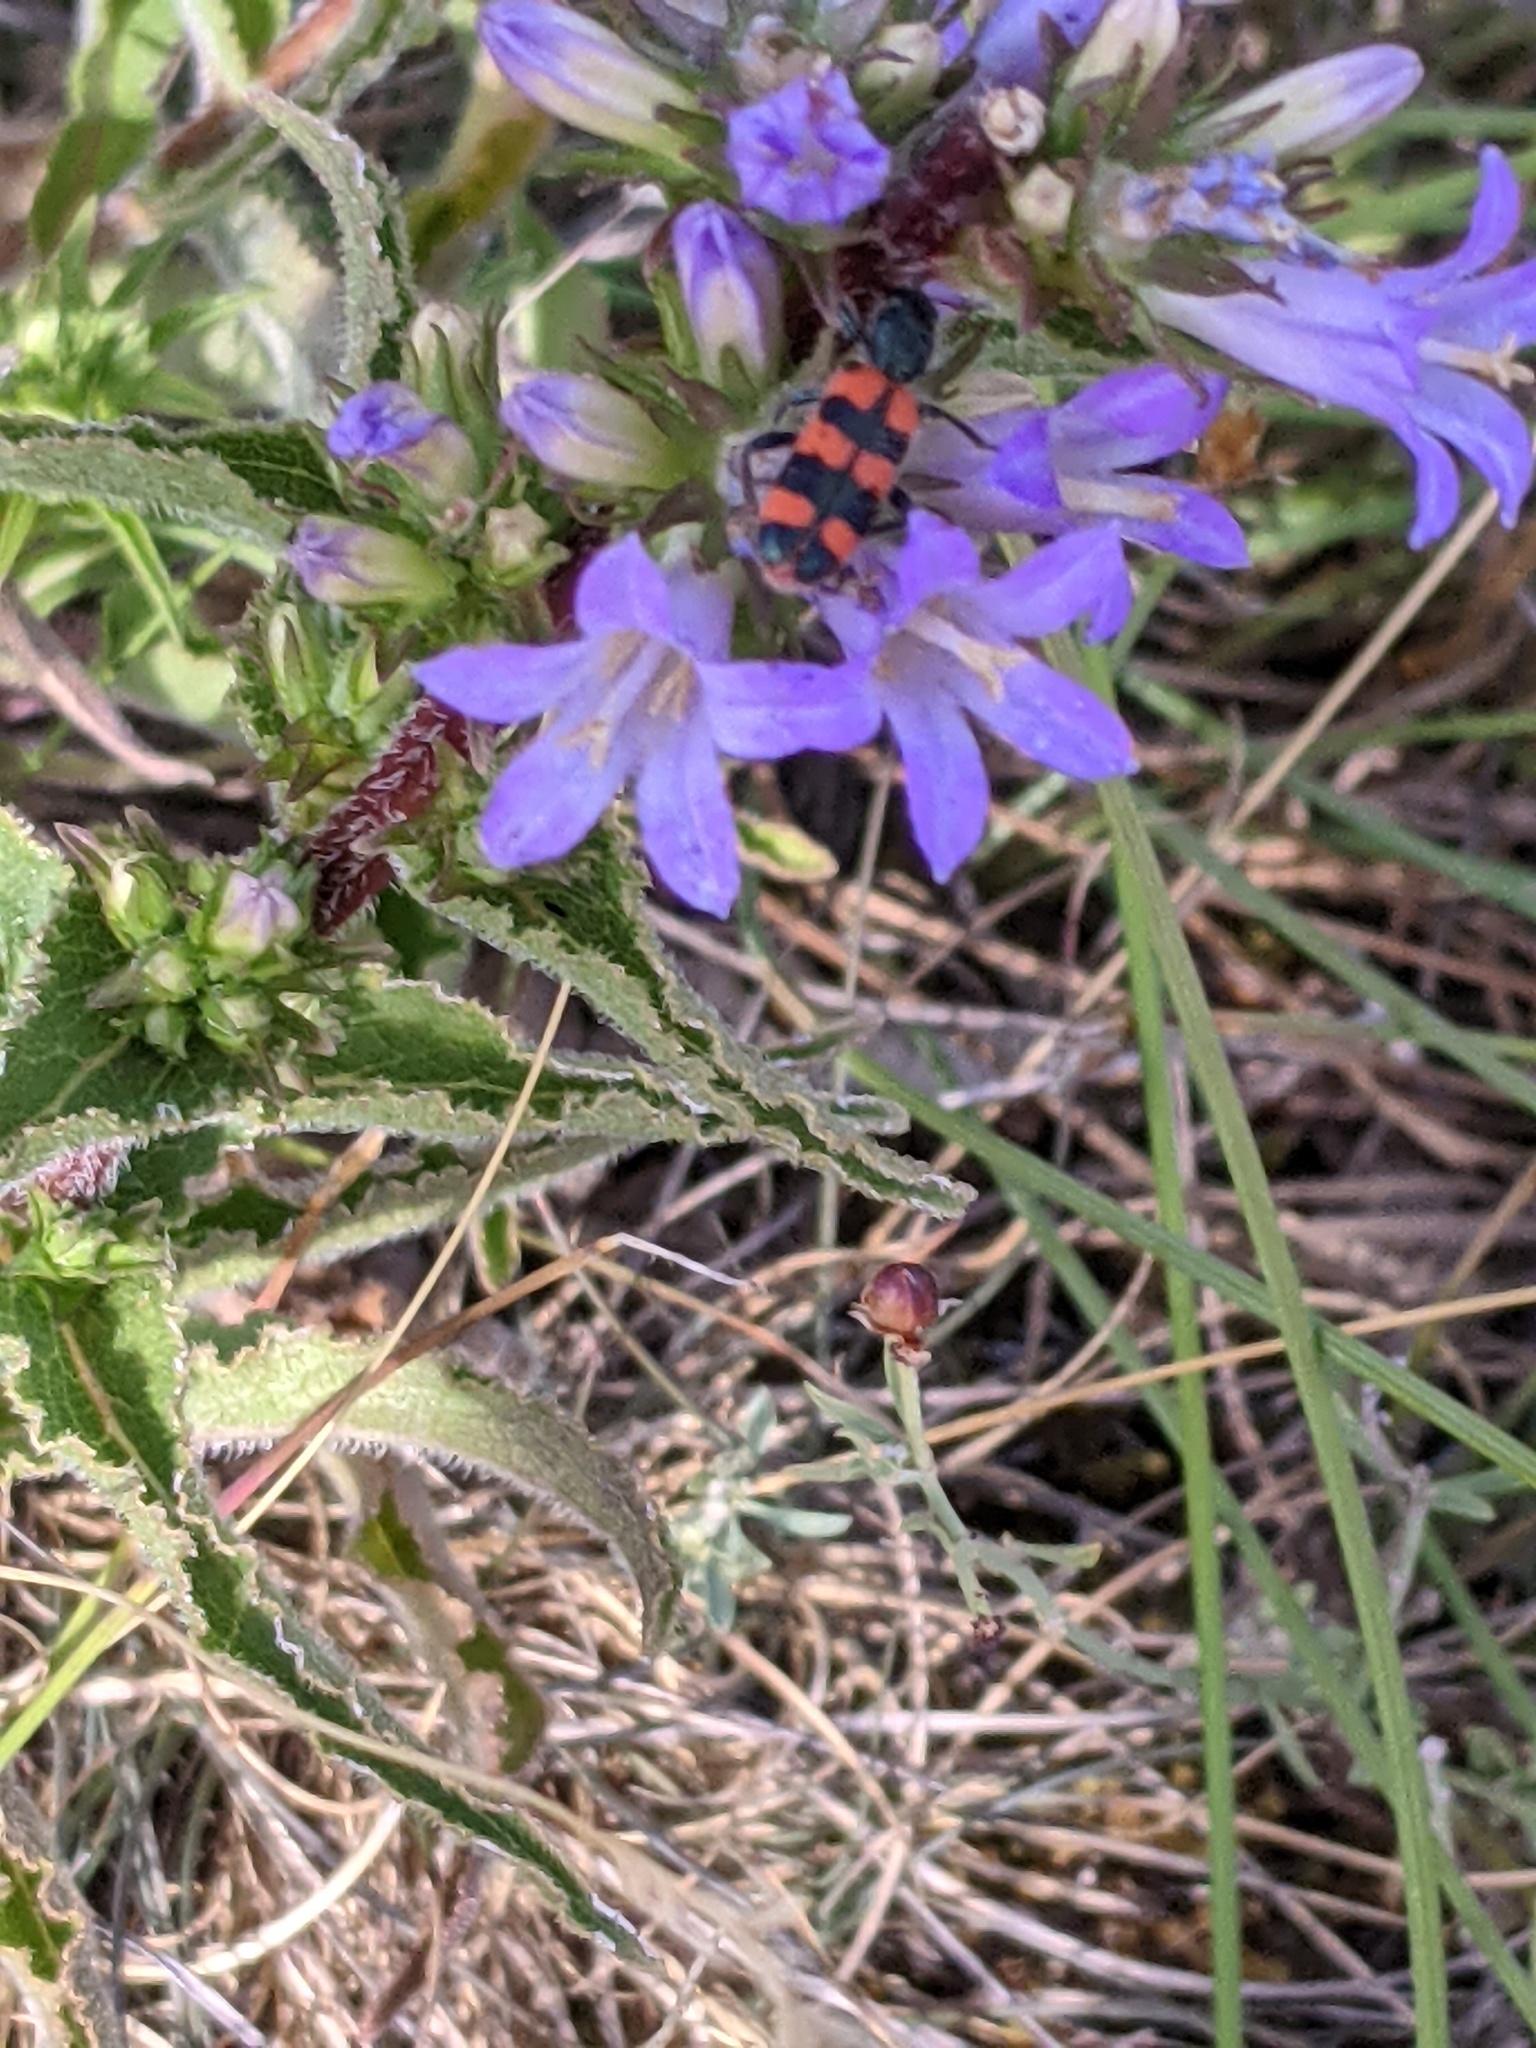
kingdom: Animalia
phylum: Arthropoda
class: Insecta
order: Coleoptera
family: Cleridae
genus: Trichodes
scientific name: Trichodes leucopsideus
